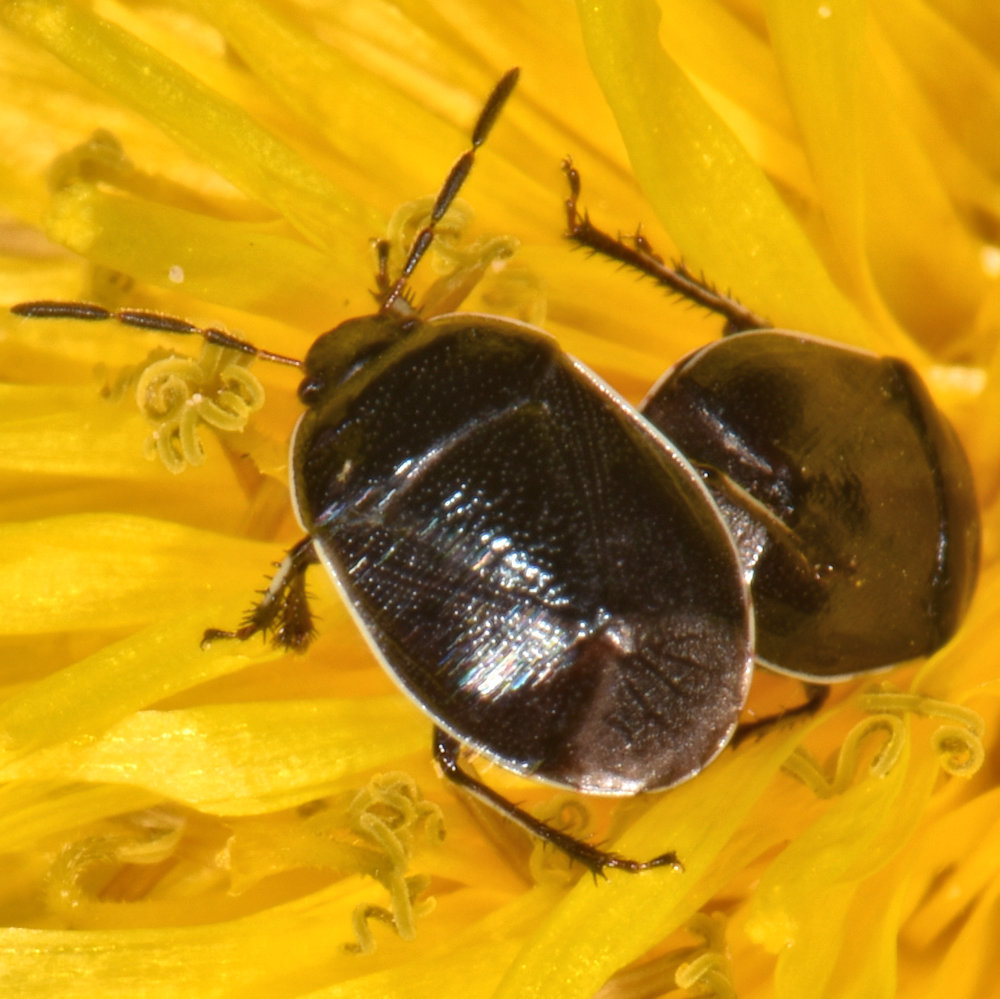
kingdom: Animalia
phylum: Arthropoda
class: Insecta
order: Hemiptera
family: Cydnidae
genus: Sehirus
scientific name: Sehirus cinctus
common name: White-margined burrower bug
